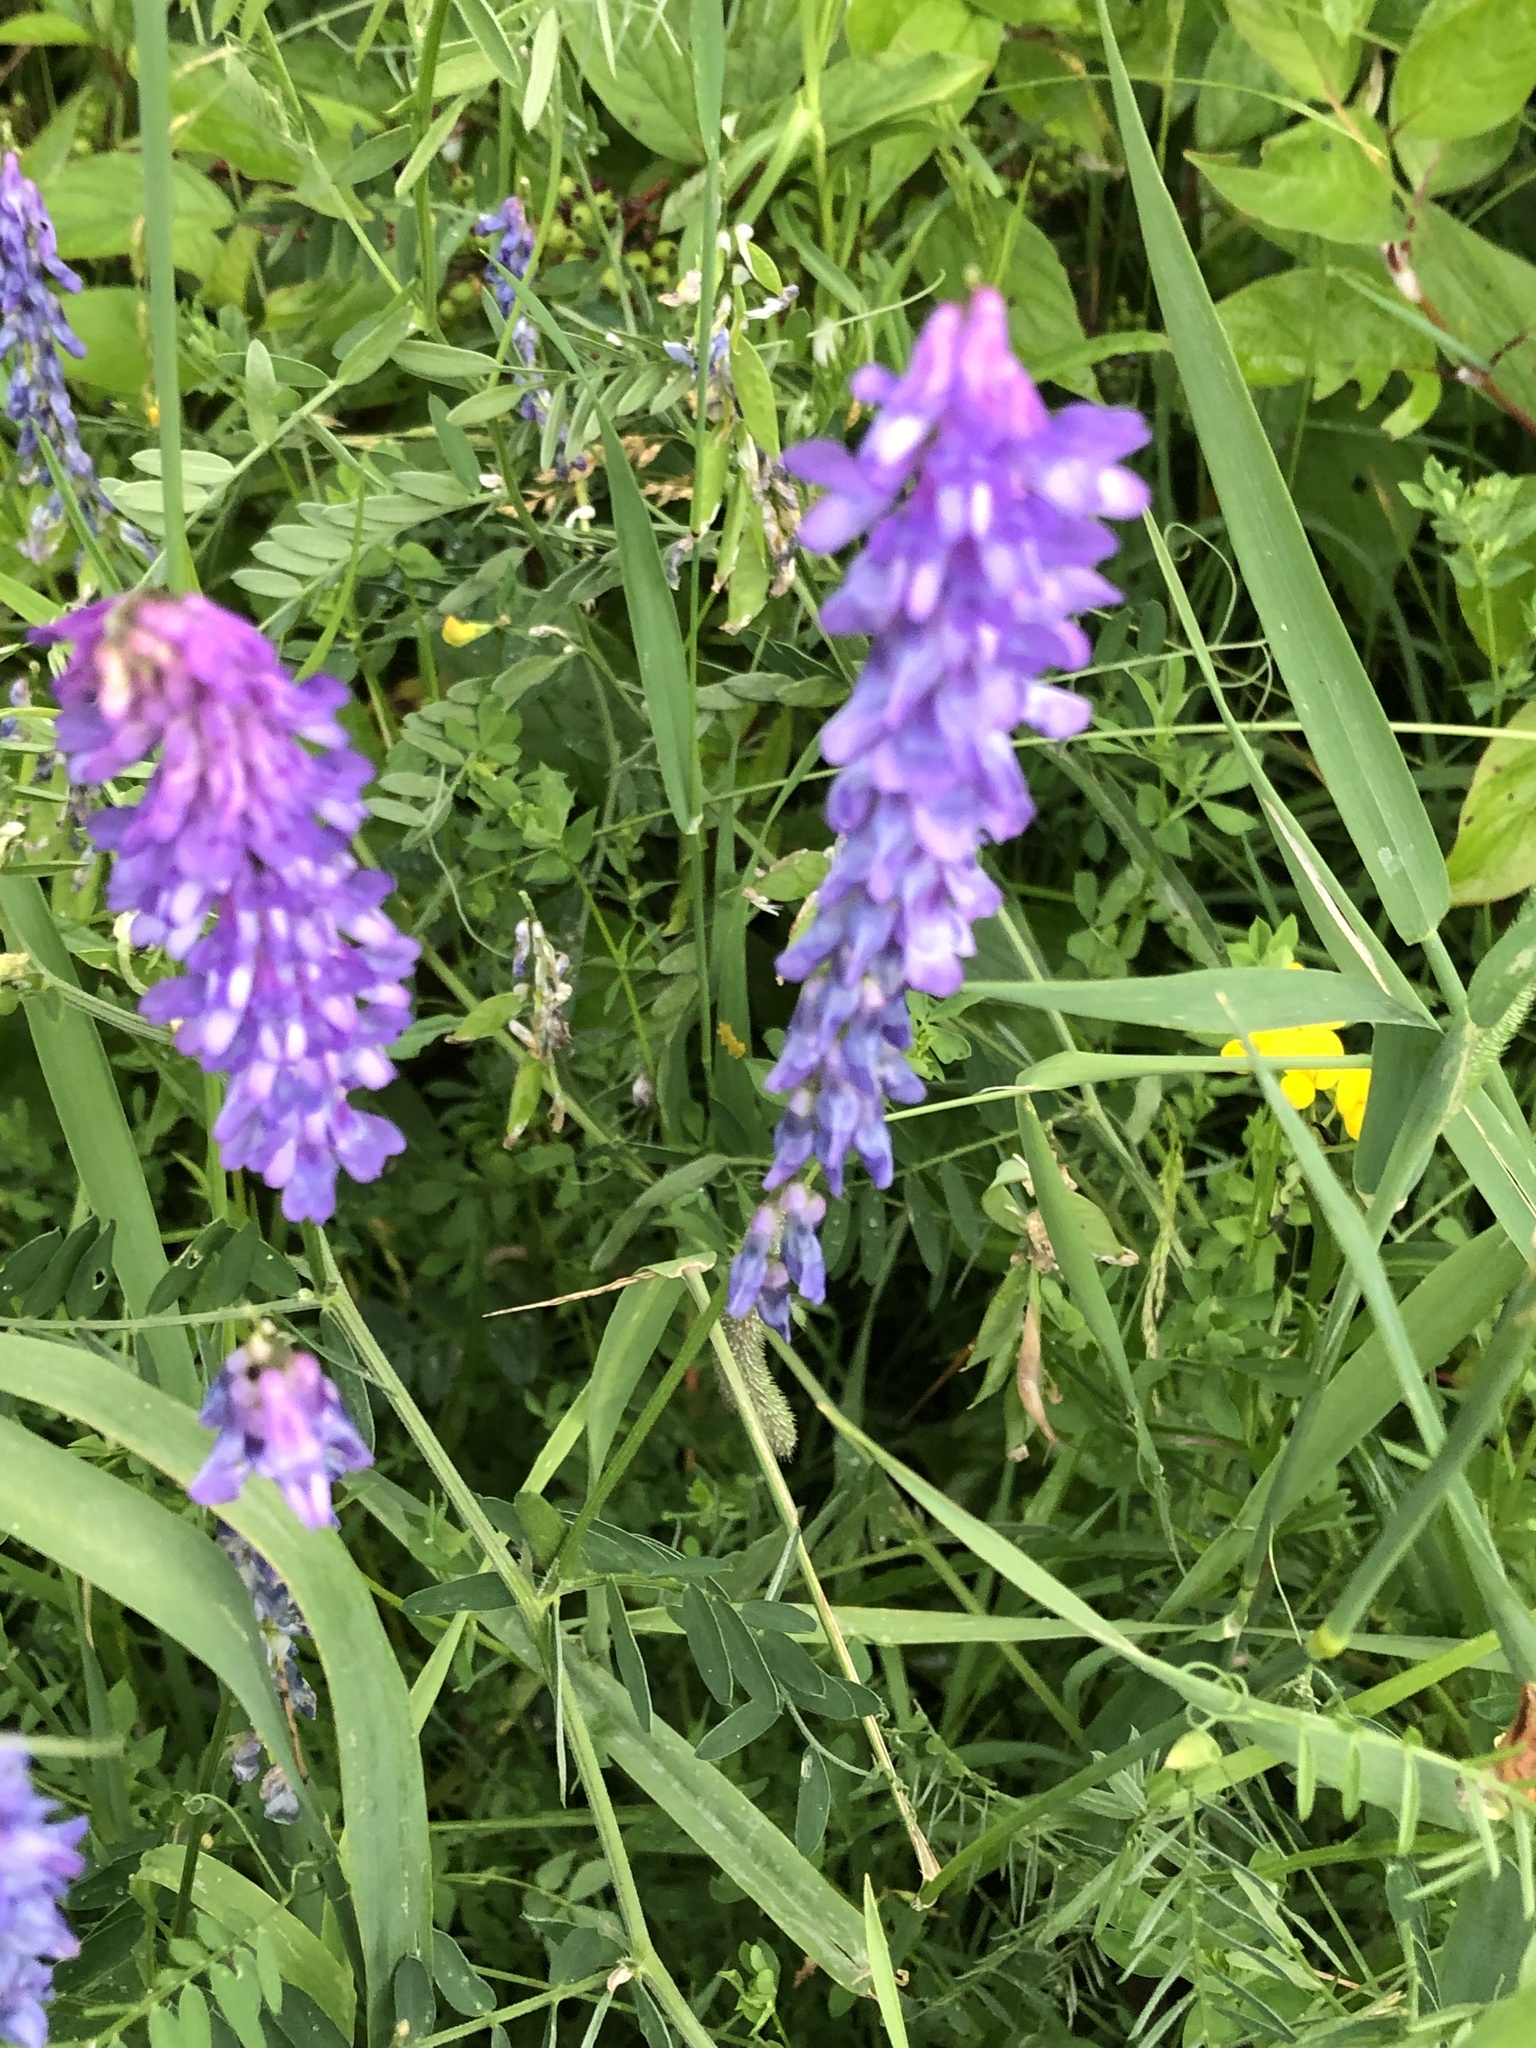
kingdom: Plantae
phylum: Tracheophyta
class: Magnoliopsida
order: Fabales
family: Fabaceae
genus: Vicia
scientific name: Vicia cracca
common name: Bird vetch
